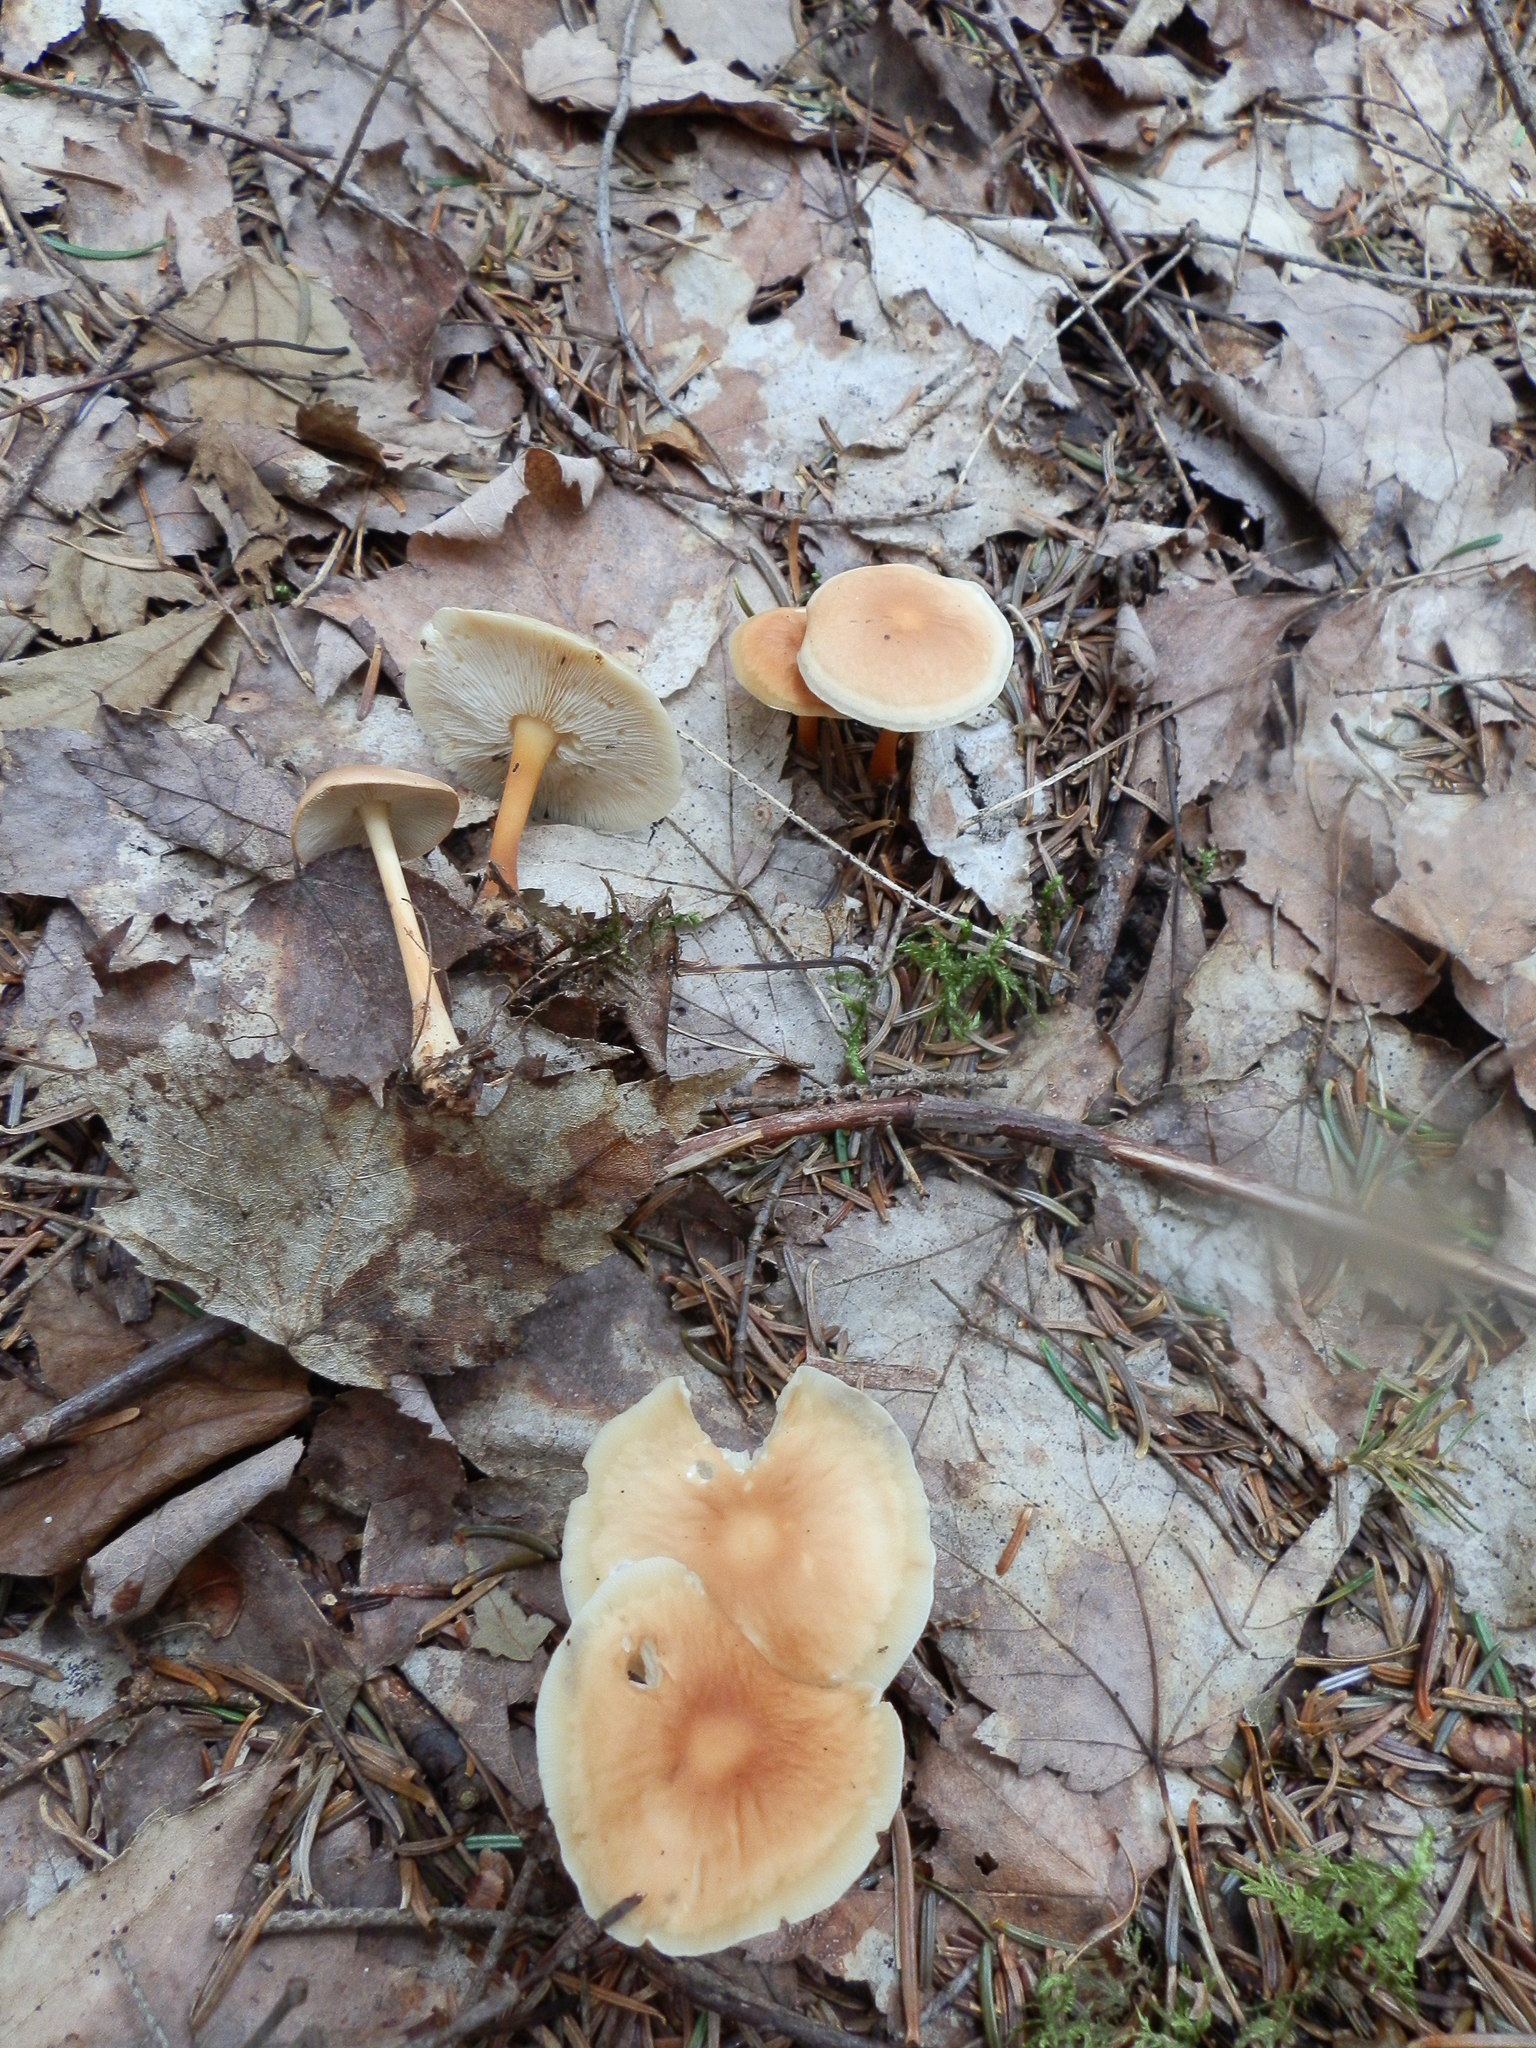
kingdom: Fungi
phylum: Basidiomycota
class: Agaricomycetes
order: Agaricales
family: Omphalotaceae
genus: Gymnopus
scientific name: Gymnopus dryophilus
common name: Penny top
